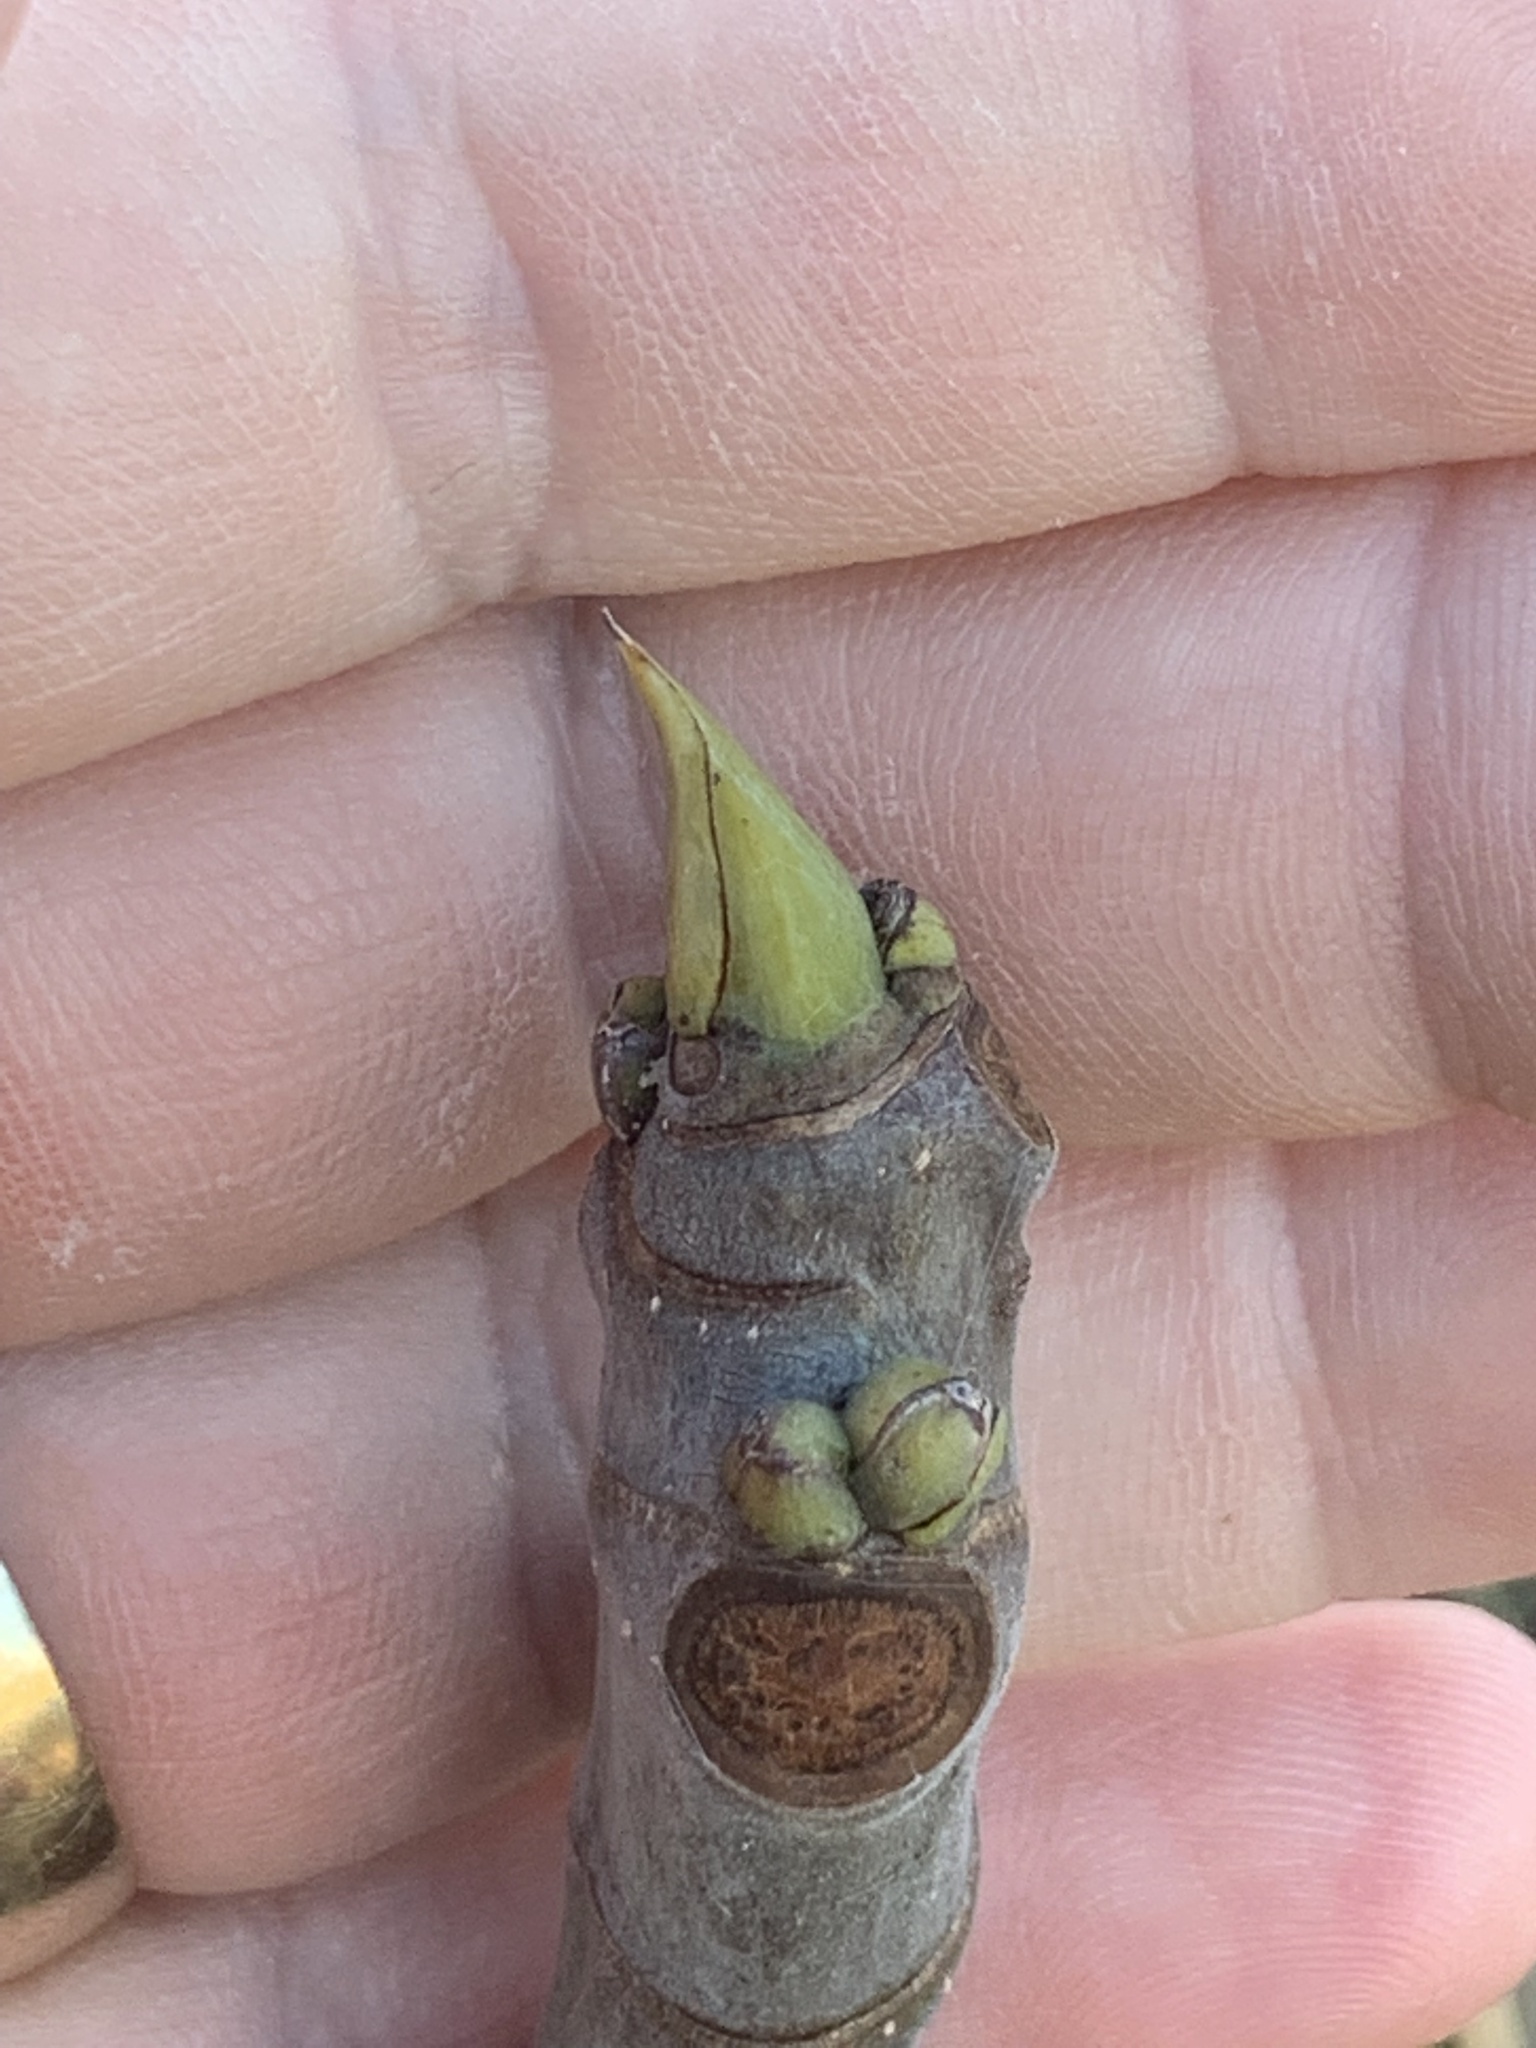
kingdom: Plantae
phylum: Tracheophyta
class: Magnoliopsida
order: Rosales
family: Moraceae
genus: Ficus
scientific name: Ficus carica
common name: Fig
